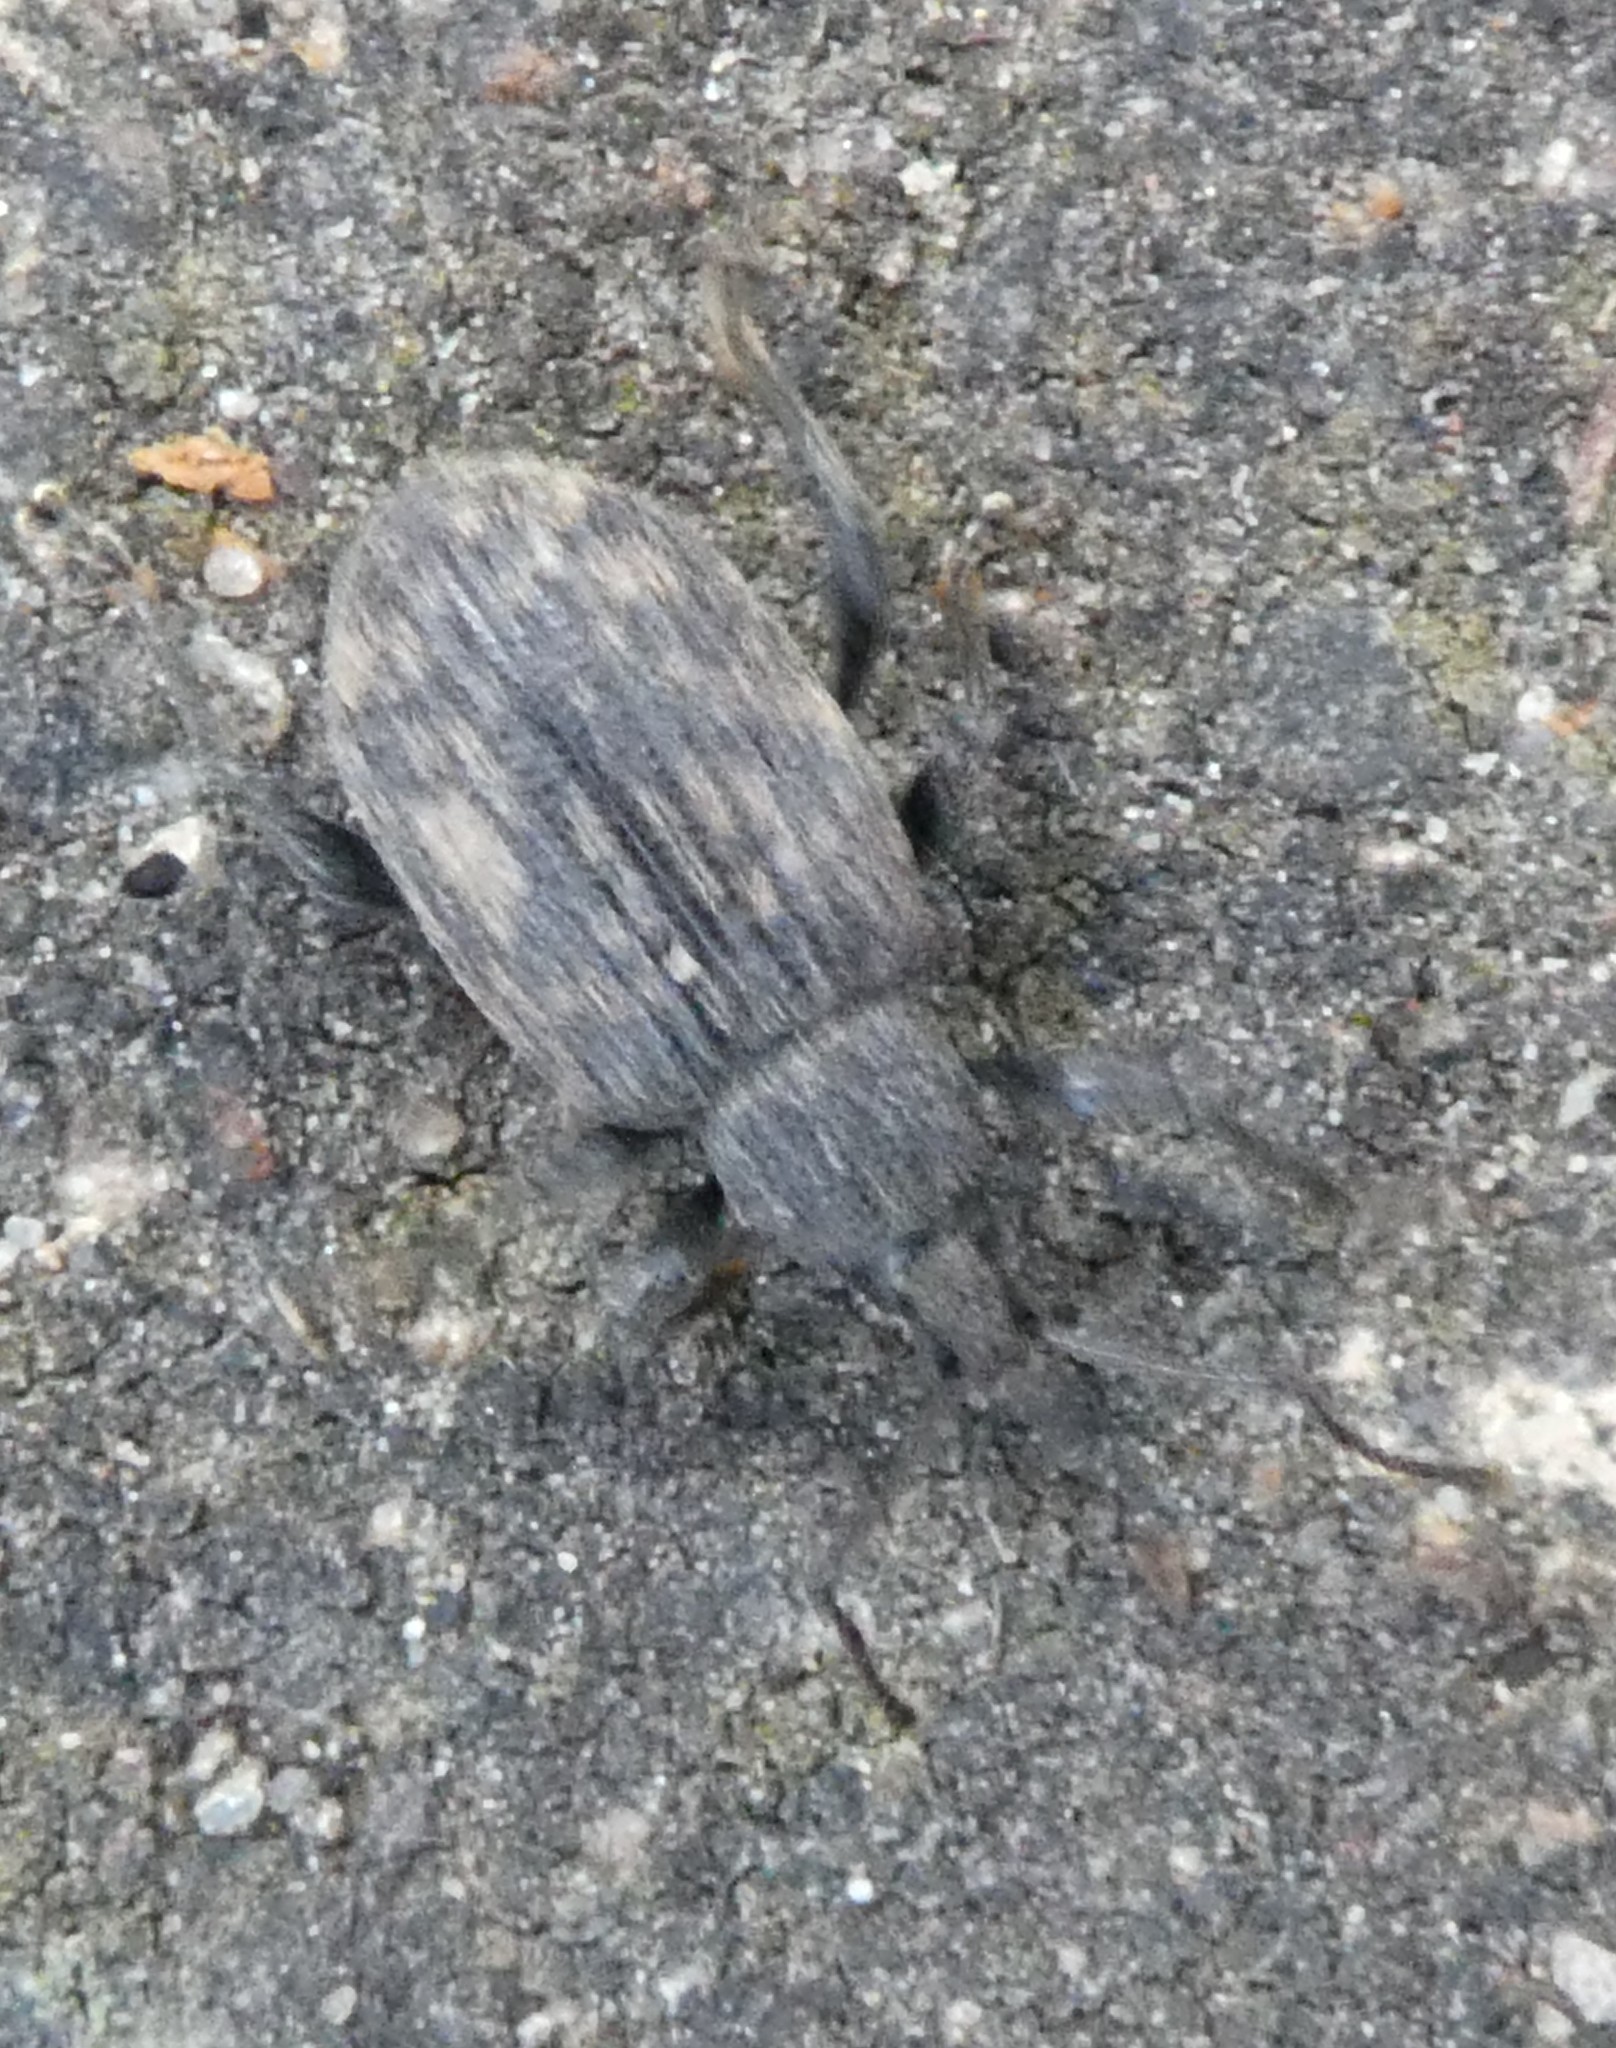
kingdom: Animalia
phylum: Arthropoda
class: Insecta
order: Coleoptera
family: Curculionidae
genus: Otiorhynchus
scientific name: Otiorhynchus sulcatus
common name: Black vine weevil
